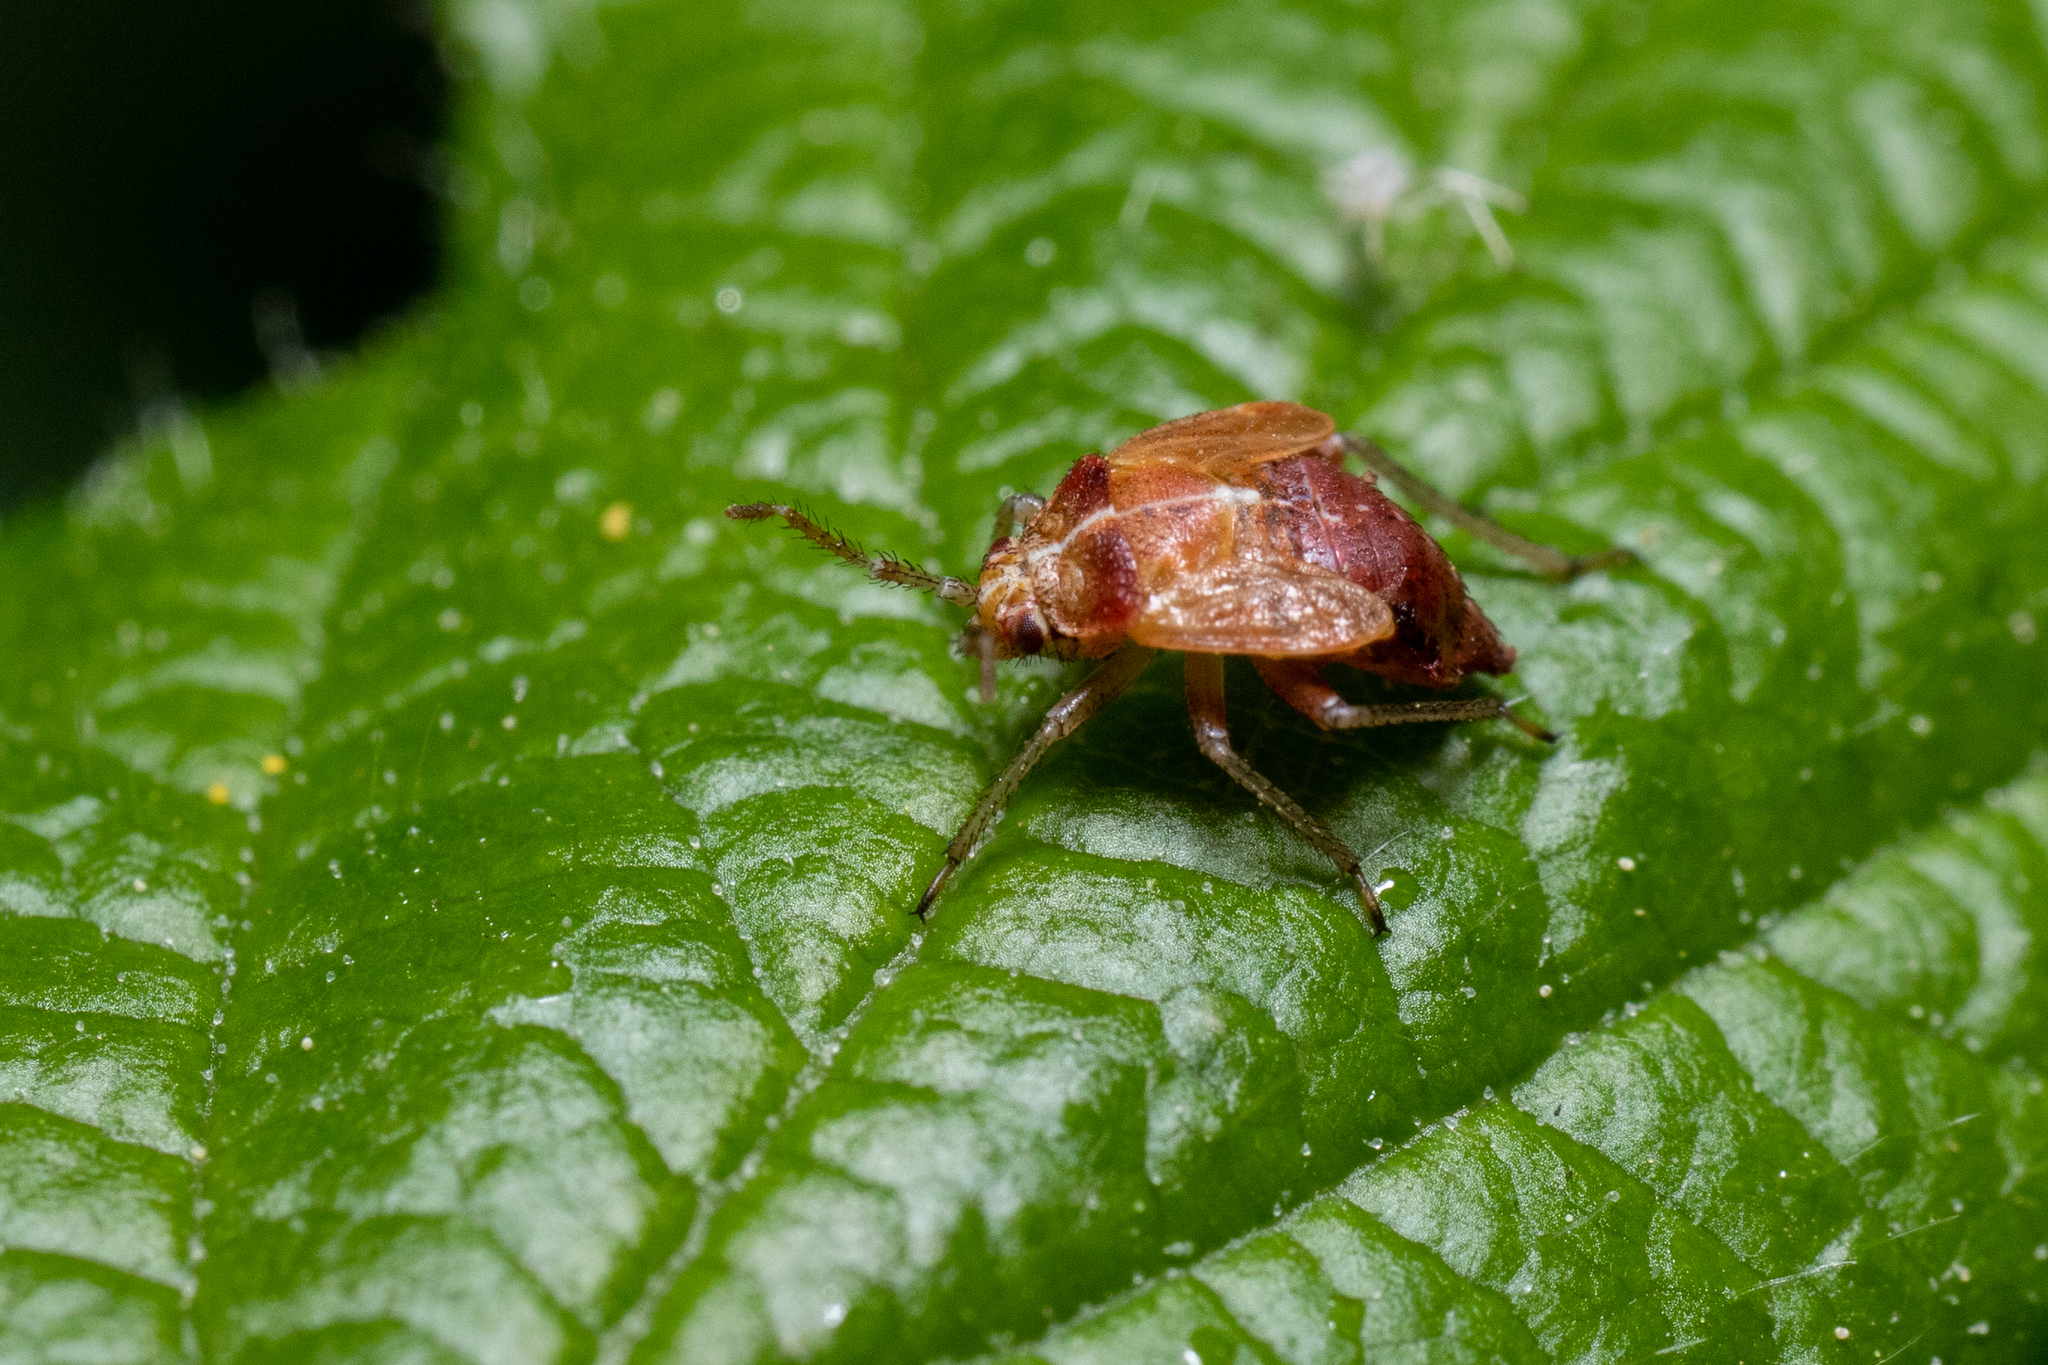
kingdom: Animalia
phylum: Arthropoda
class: Insecta
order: Hemiptera
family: Miridae
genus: Harpocera
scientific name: Harpocera thoracica
